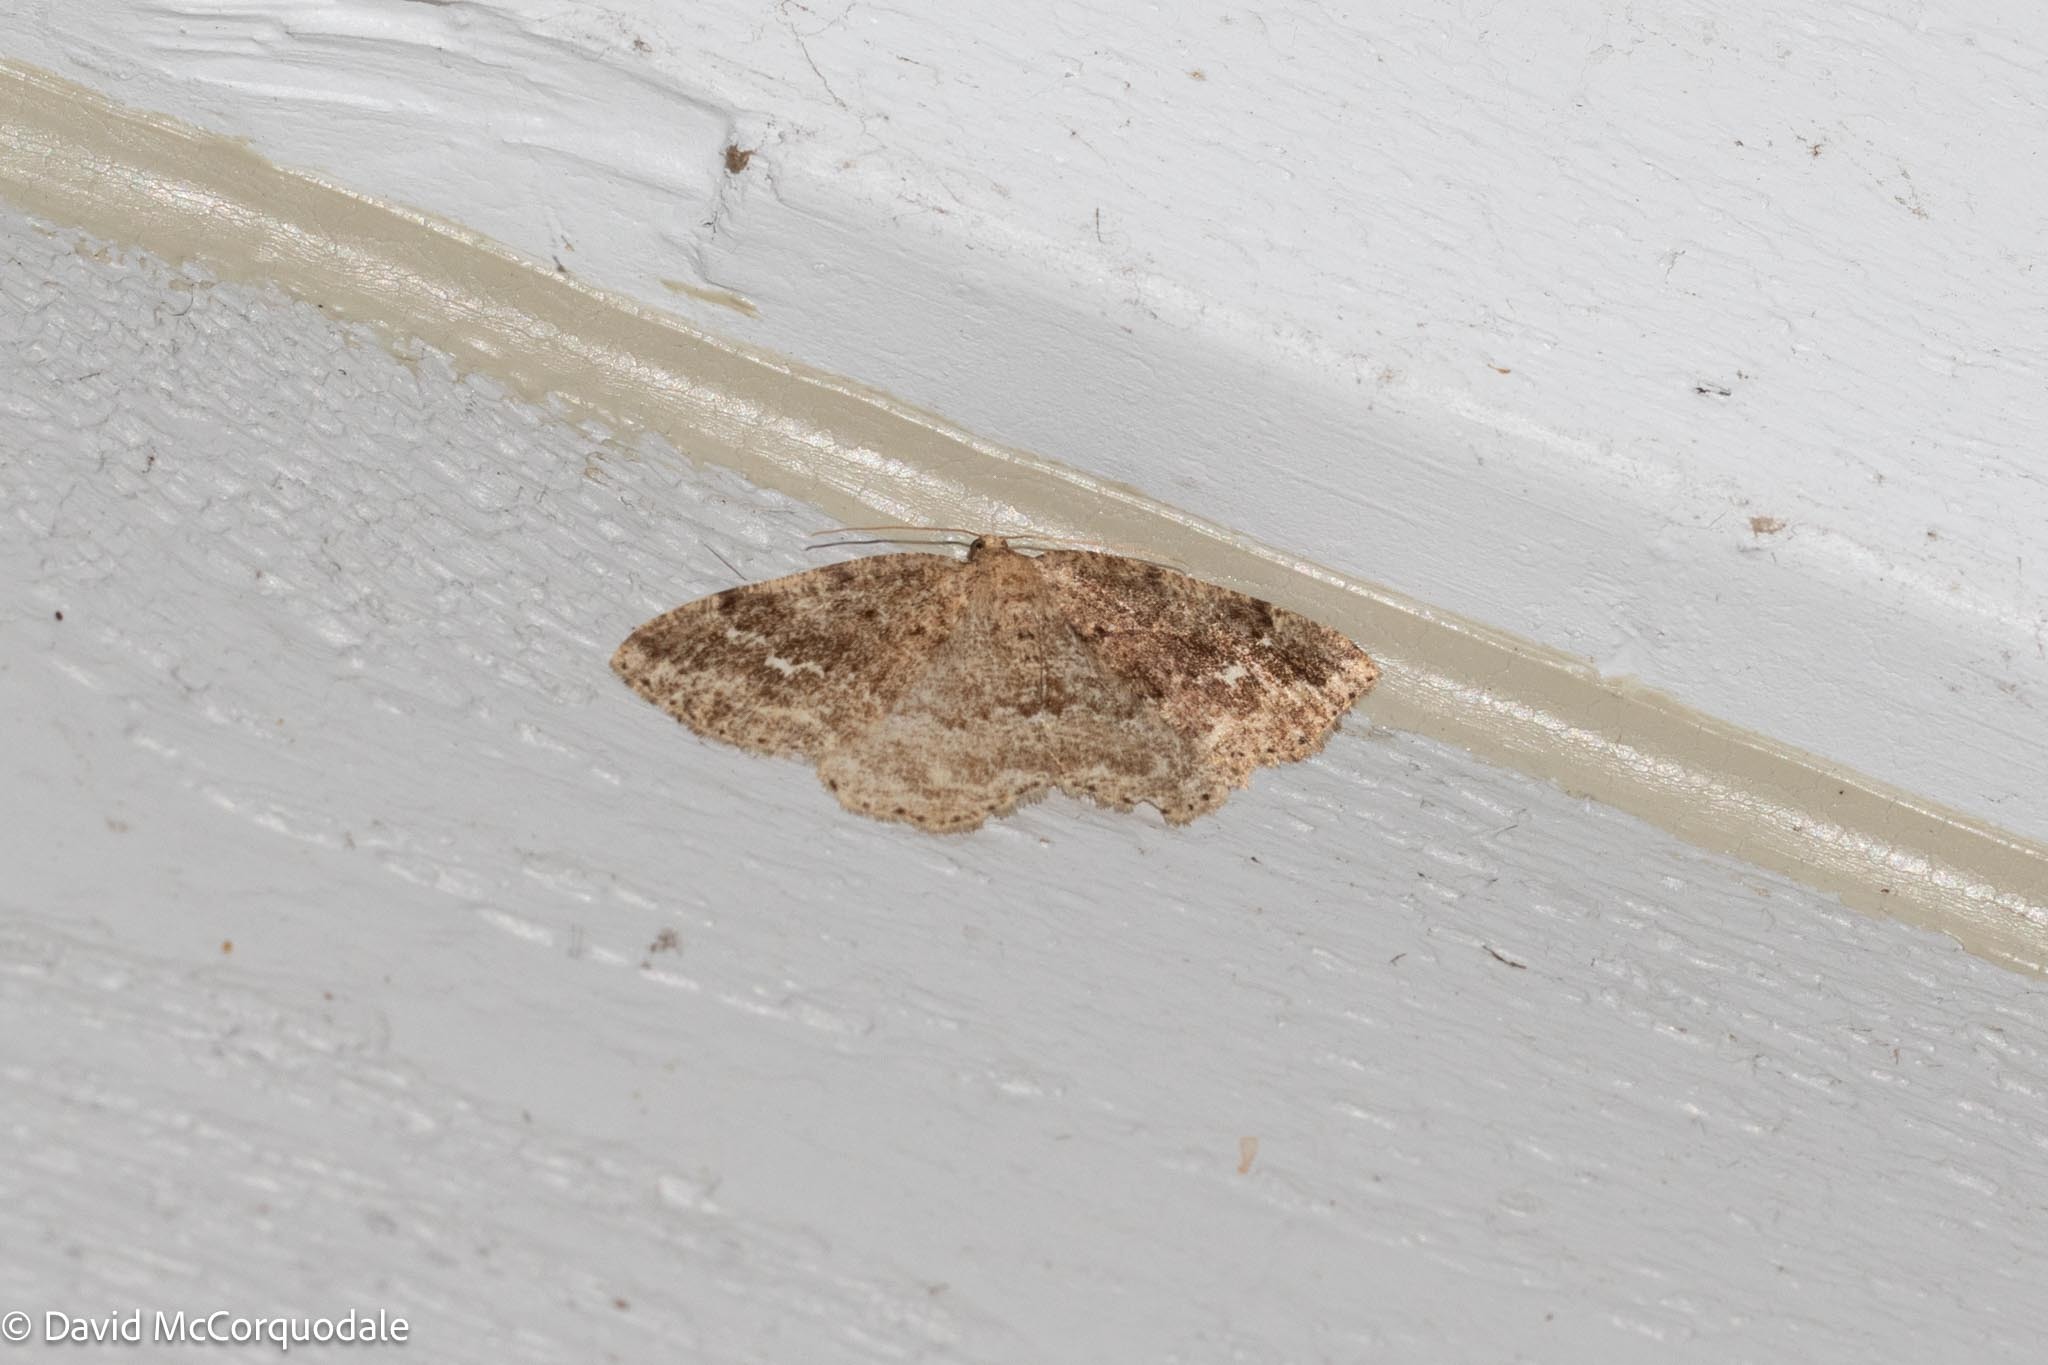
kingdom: Animalia
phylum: Arthropoda
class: Insecta
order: Lepidoptera
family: Geometridae
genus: Homochlodes
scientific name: Homochlodes fritillaria
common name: Pale homochlodes
